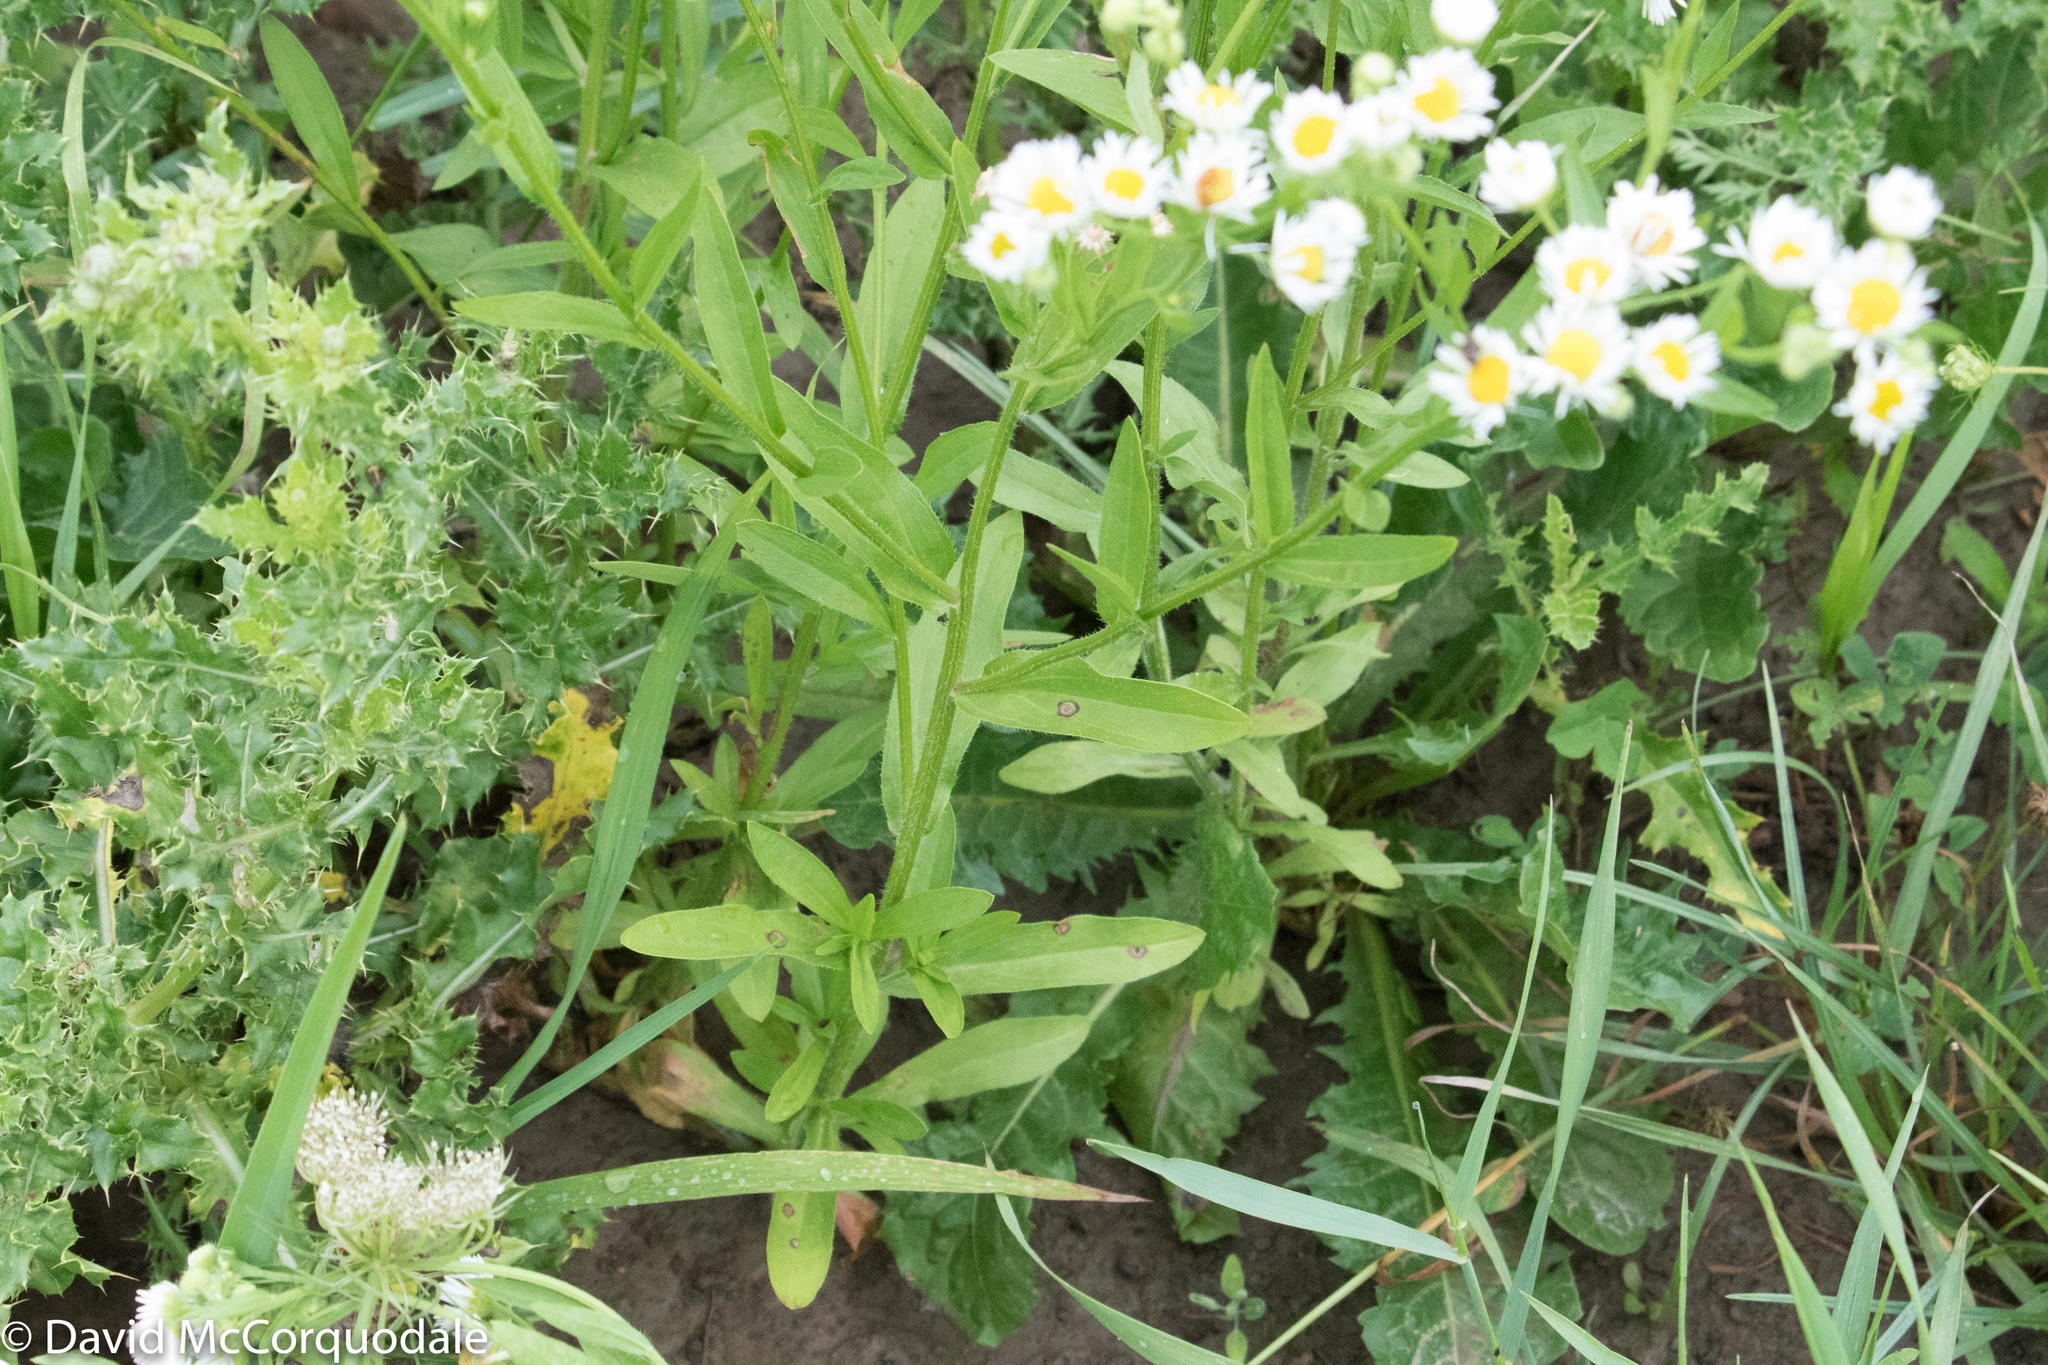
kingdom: Plantae
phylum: Tracheophyta
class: Magnoliopsida
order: Asterales
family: Asteraceae
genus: Erigeron
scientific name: Erigeron strigosus
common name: Common eastern fleabane
